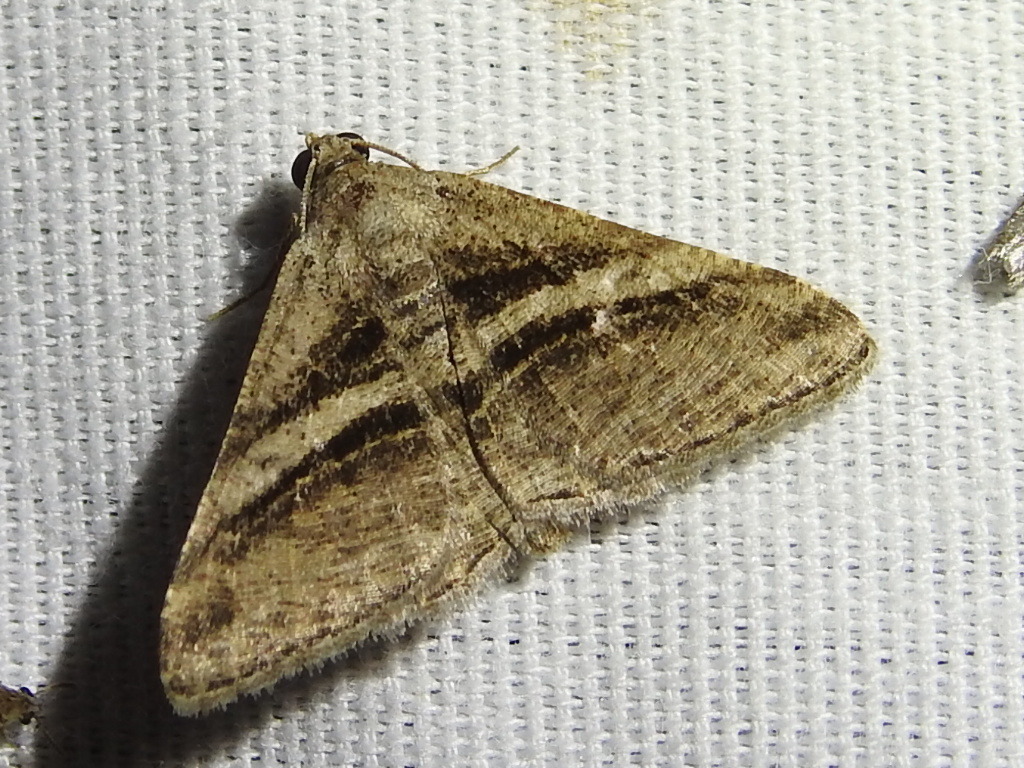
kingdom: Animalia
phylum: Arthropoda
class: Insecta
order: Lepidoptera
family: Geometridae
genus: Digrammia
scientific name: Digrammia atrofasciata
